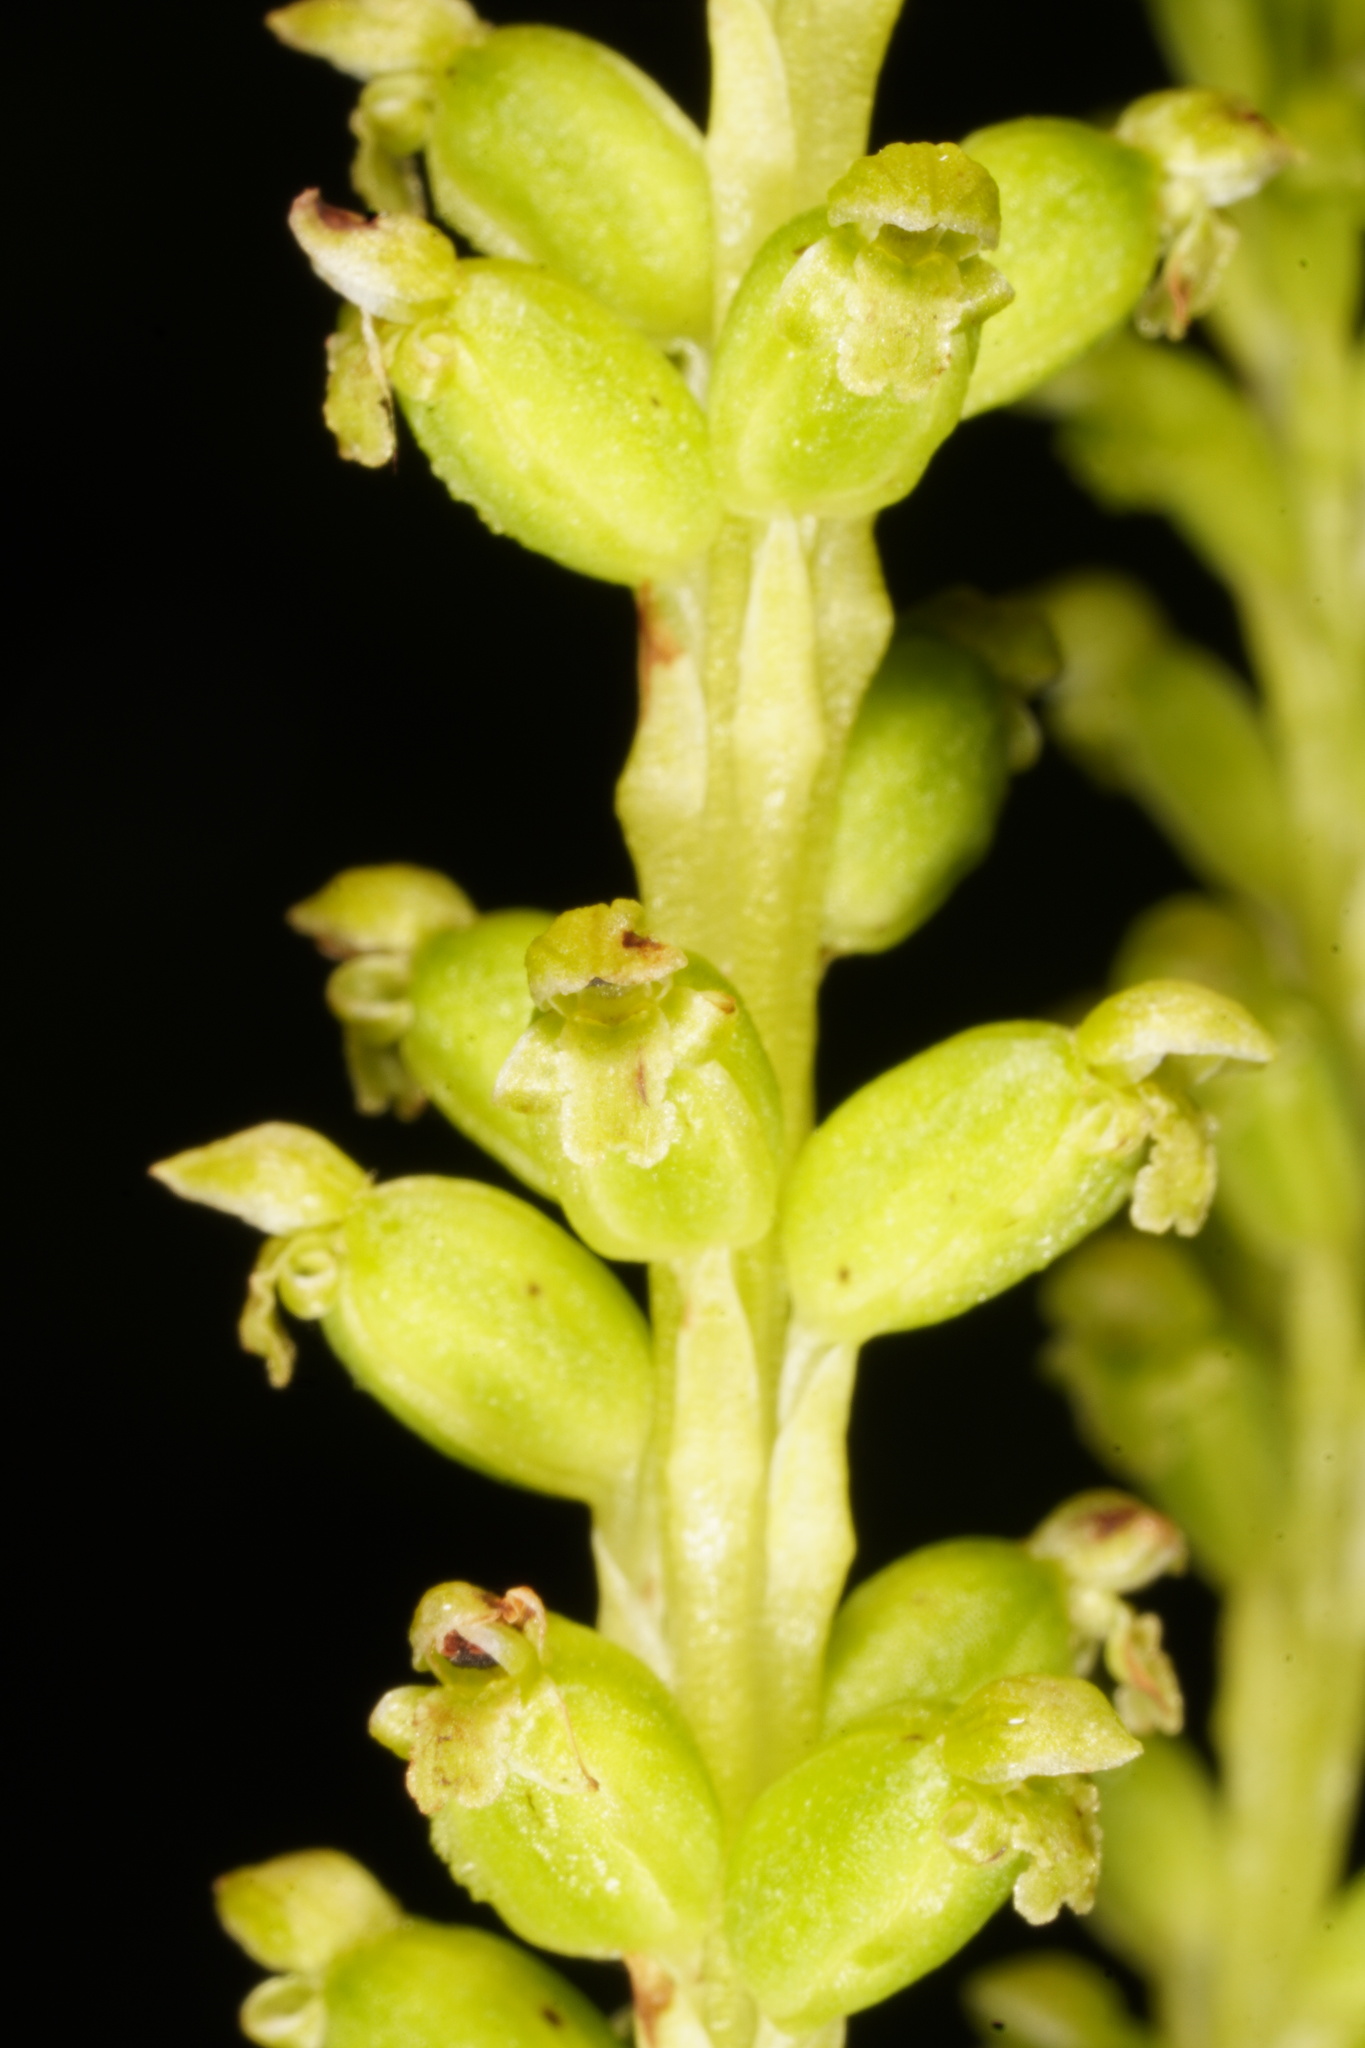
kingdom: Plantae
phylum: Tracheophyta
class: Liliopsida
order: Asparagales
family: Orchidaceae
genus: Microtis
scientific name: Microtis unifolia
